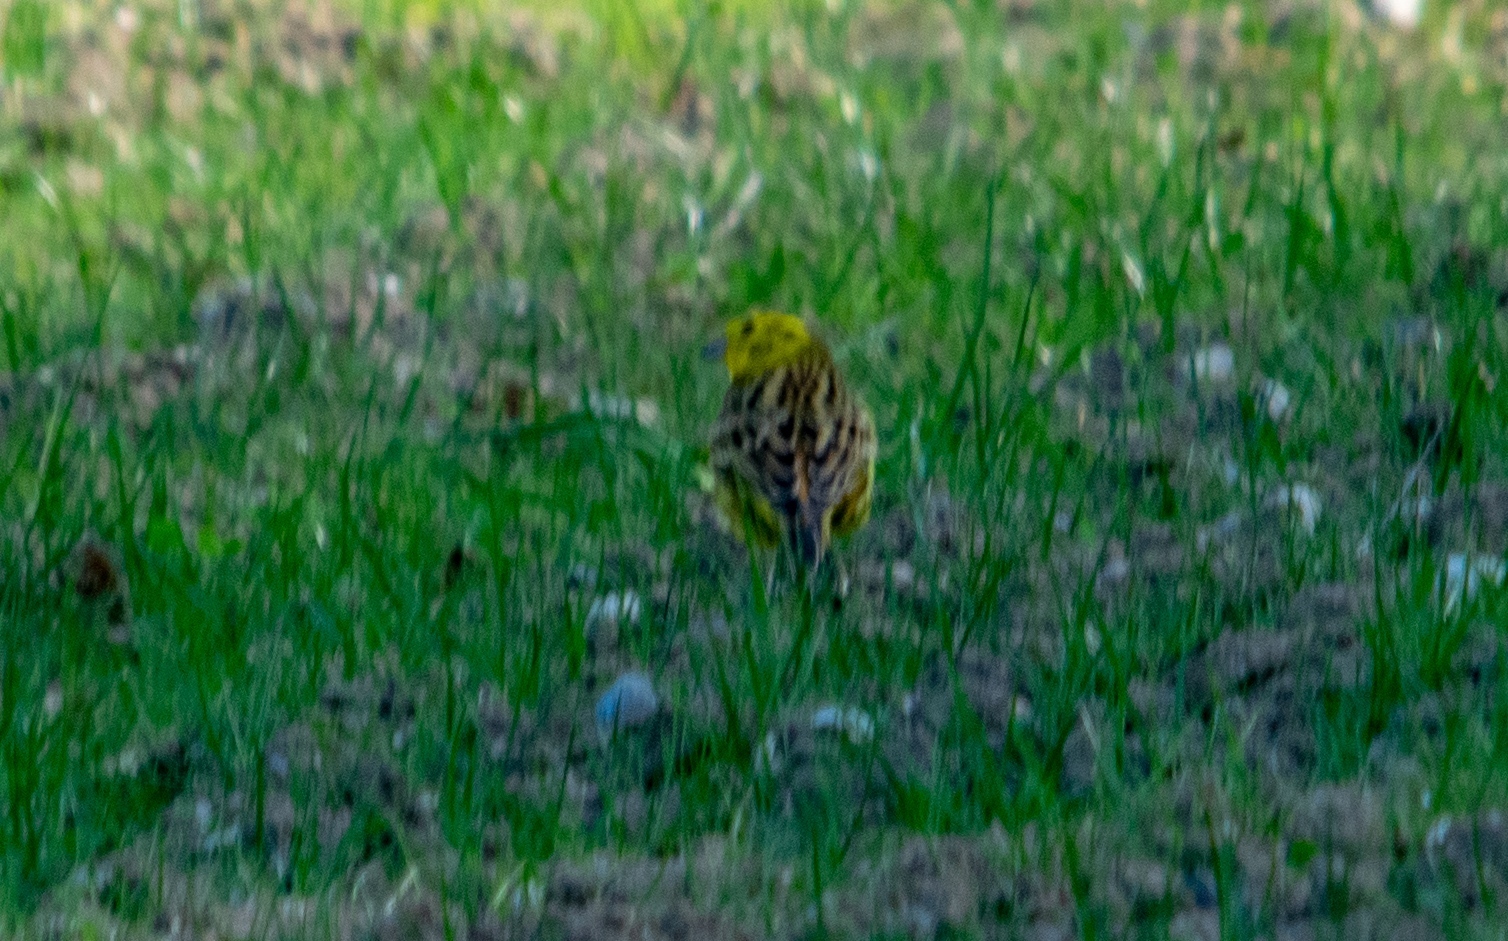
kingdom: Animalia
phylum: Chordata
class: Aves
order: Passeriformes
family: Emberizidae
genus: Emberiza
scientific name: Emberiza citrinella
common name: Yellowhammer
